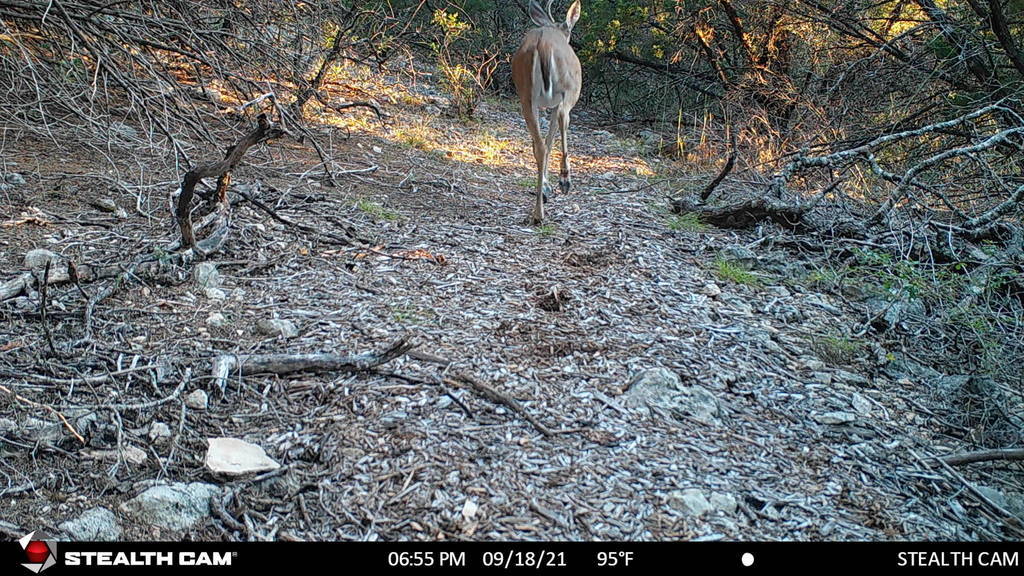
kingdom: Animalia
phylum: Chordata
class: Mammalia
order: Artiodactyla
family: Cervidae
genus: Odocoileus
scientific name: Odocoileus virginianus
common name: White-tailed deer
